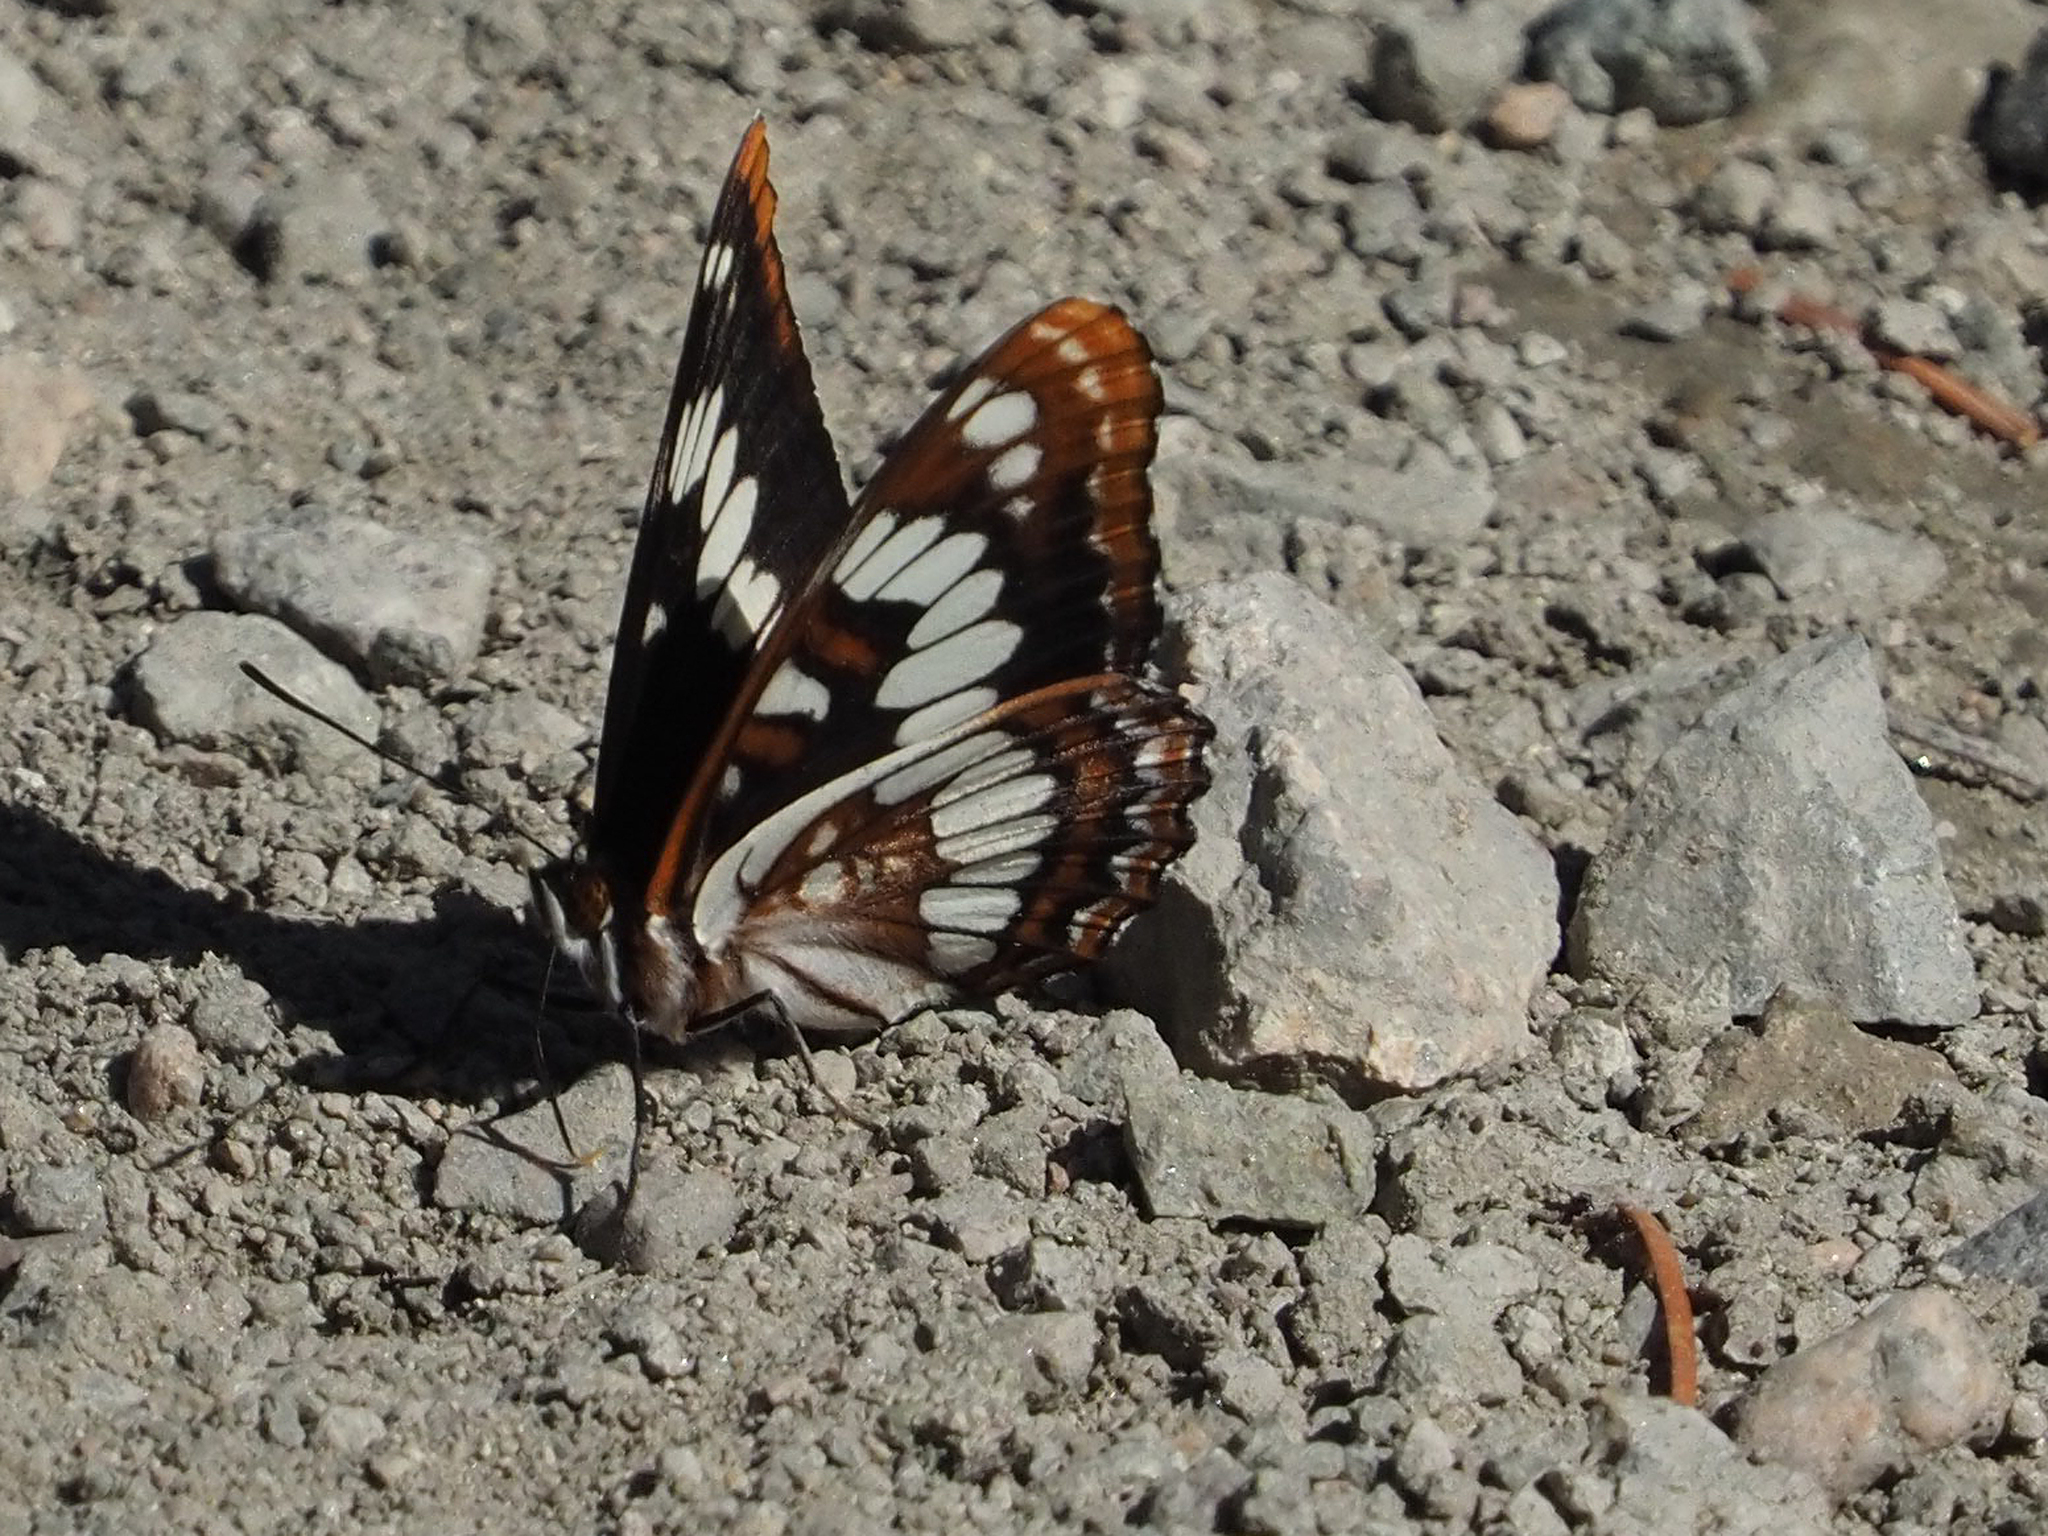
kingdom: Animalia
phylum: Arthropoda
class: Insecta
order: Lepidoptera
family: Nymphalidae
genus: Limenitis
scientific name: Limenitis lorquini
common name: Lorquin's admiral
